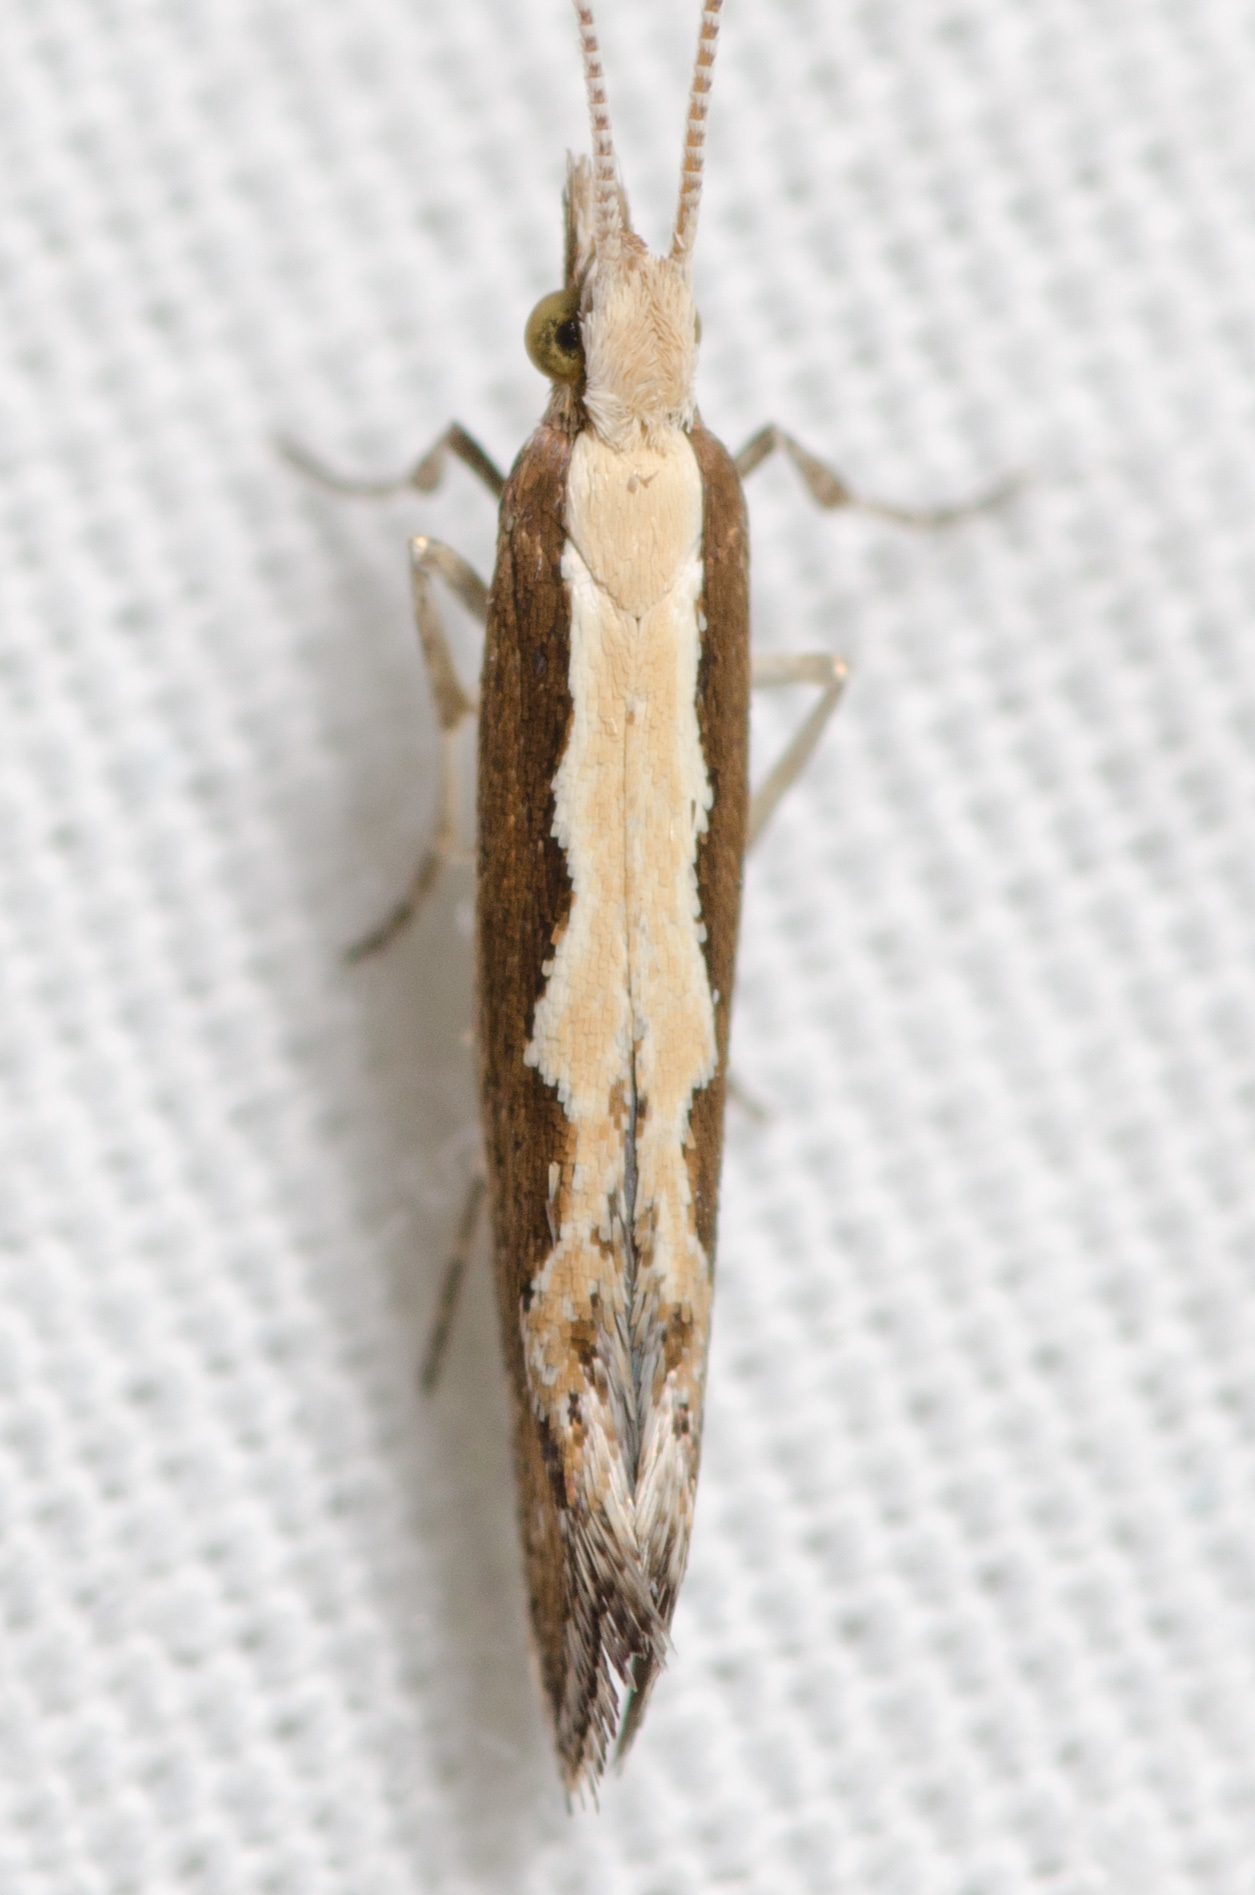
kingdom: Animalia
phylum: Arthropoda
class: Insecta
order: Lepidoptera
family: Plutellidae
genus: Plutella
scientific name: Plutella xylostella
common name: Diamond-back moth
